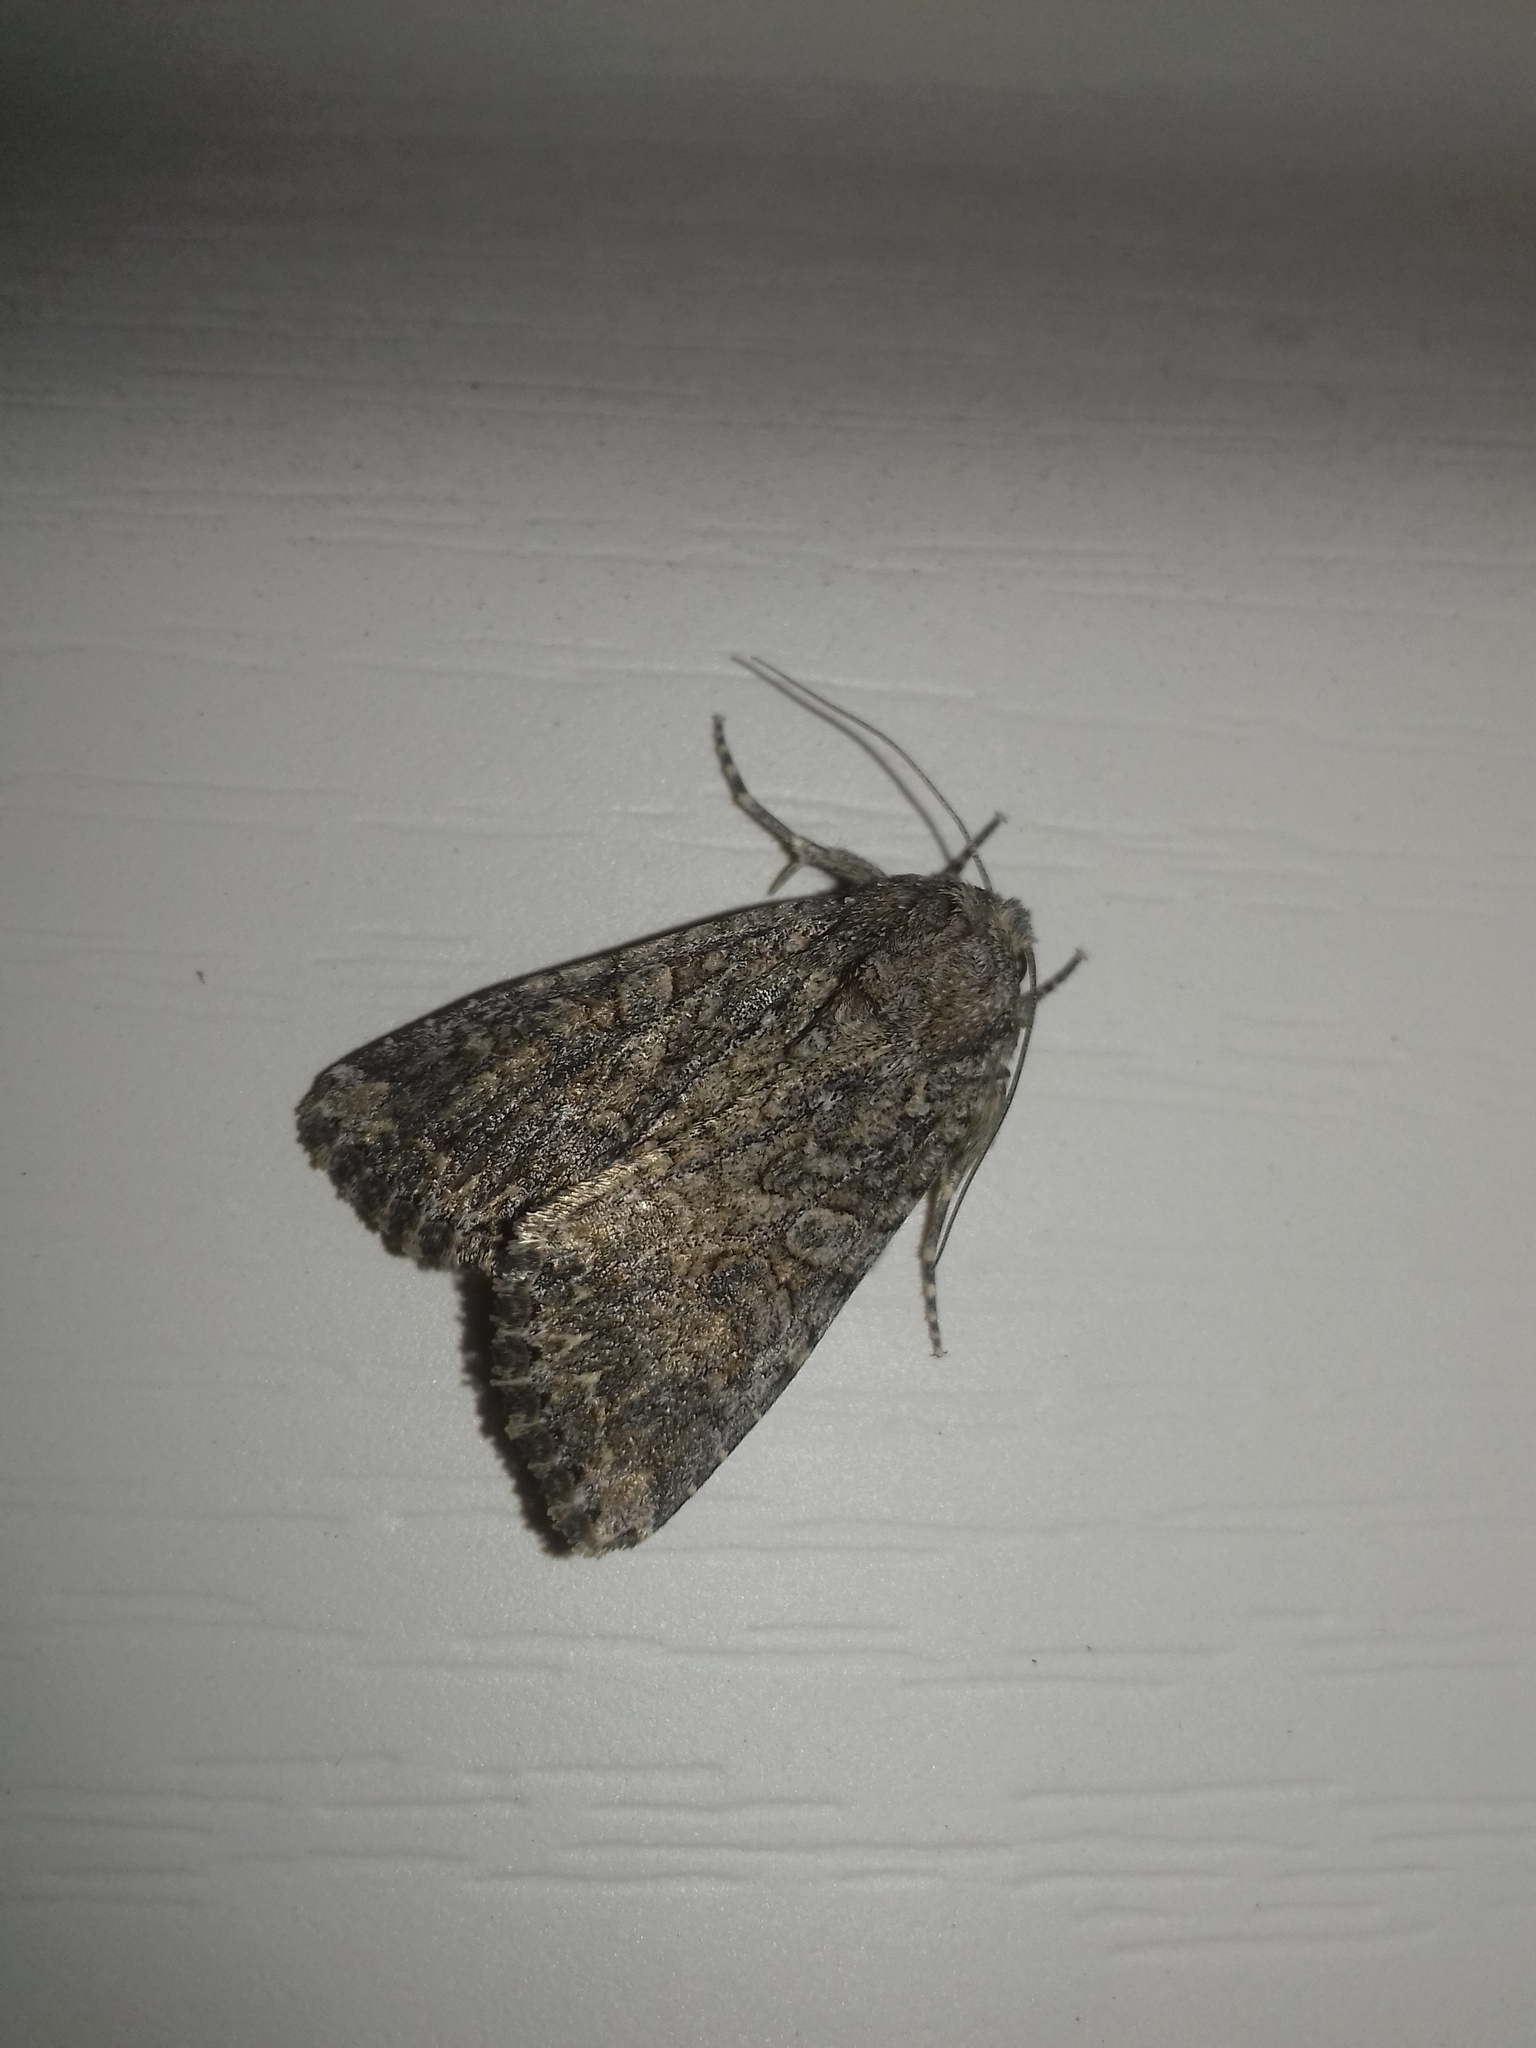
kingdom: Animalia
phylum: Arthropoda
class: Insecta
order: Lepidoptera
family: Noctuidae
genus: Anarta
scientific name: Anarta trifolii
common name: Clover cutworm moth
